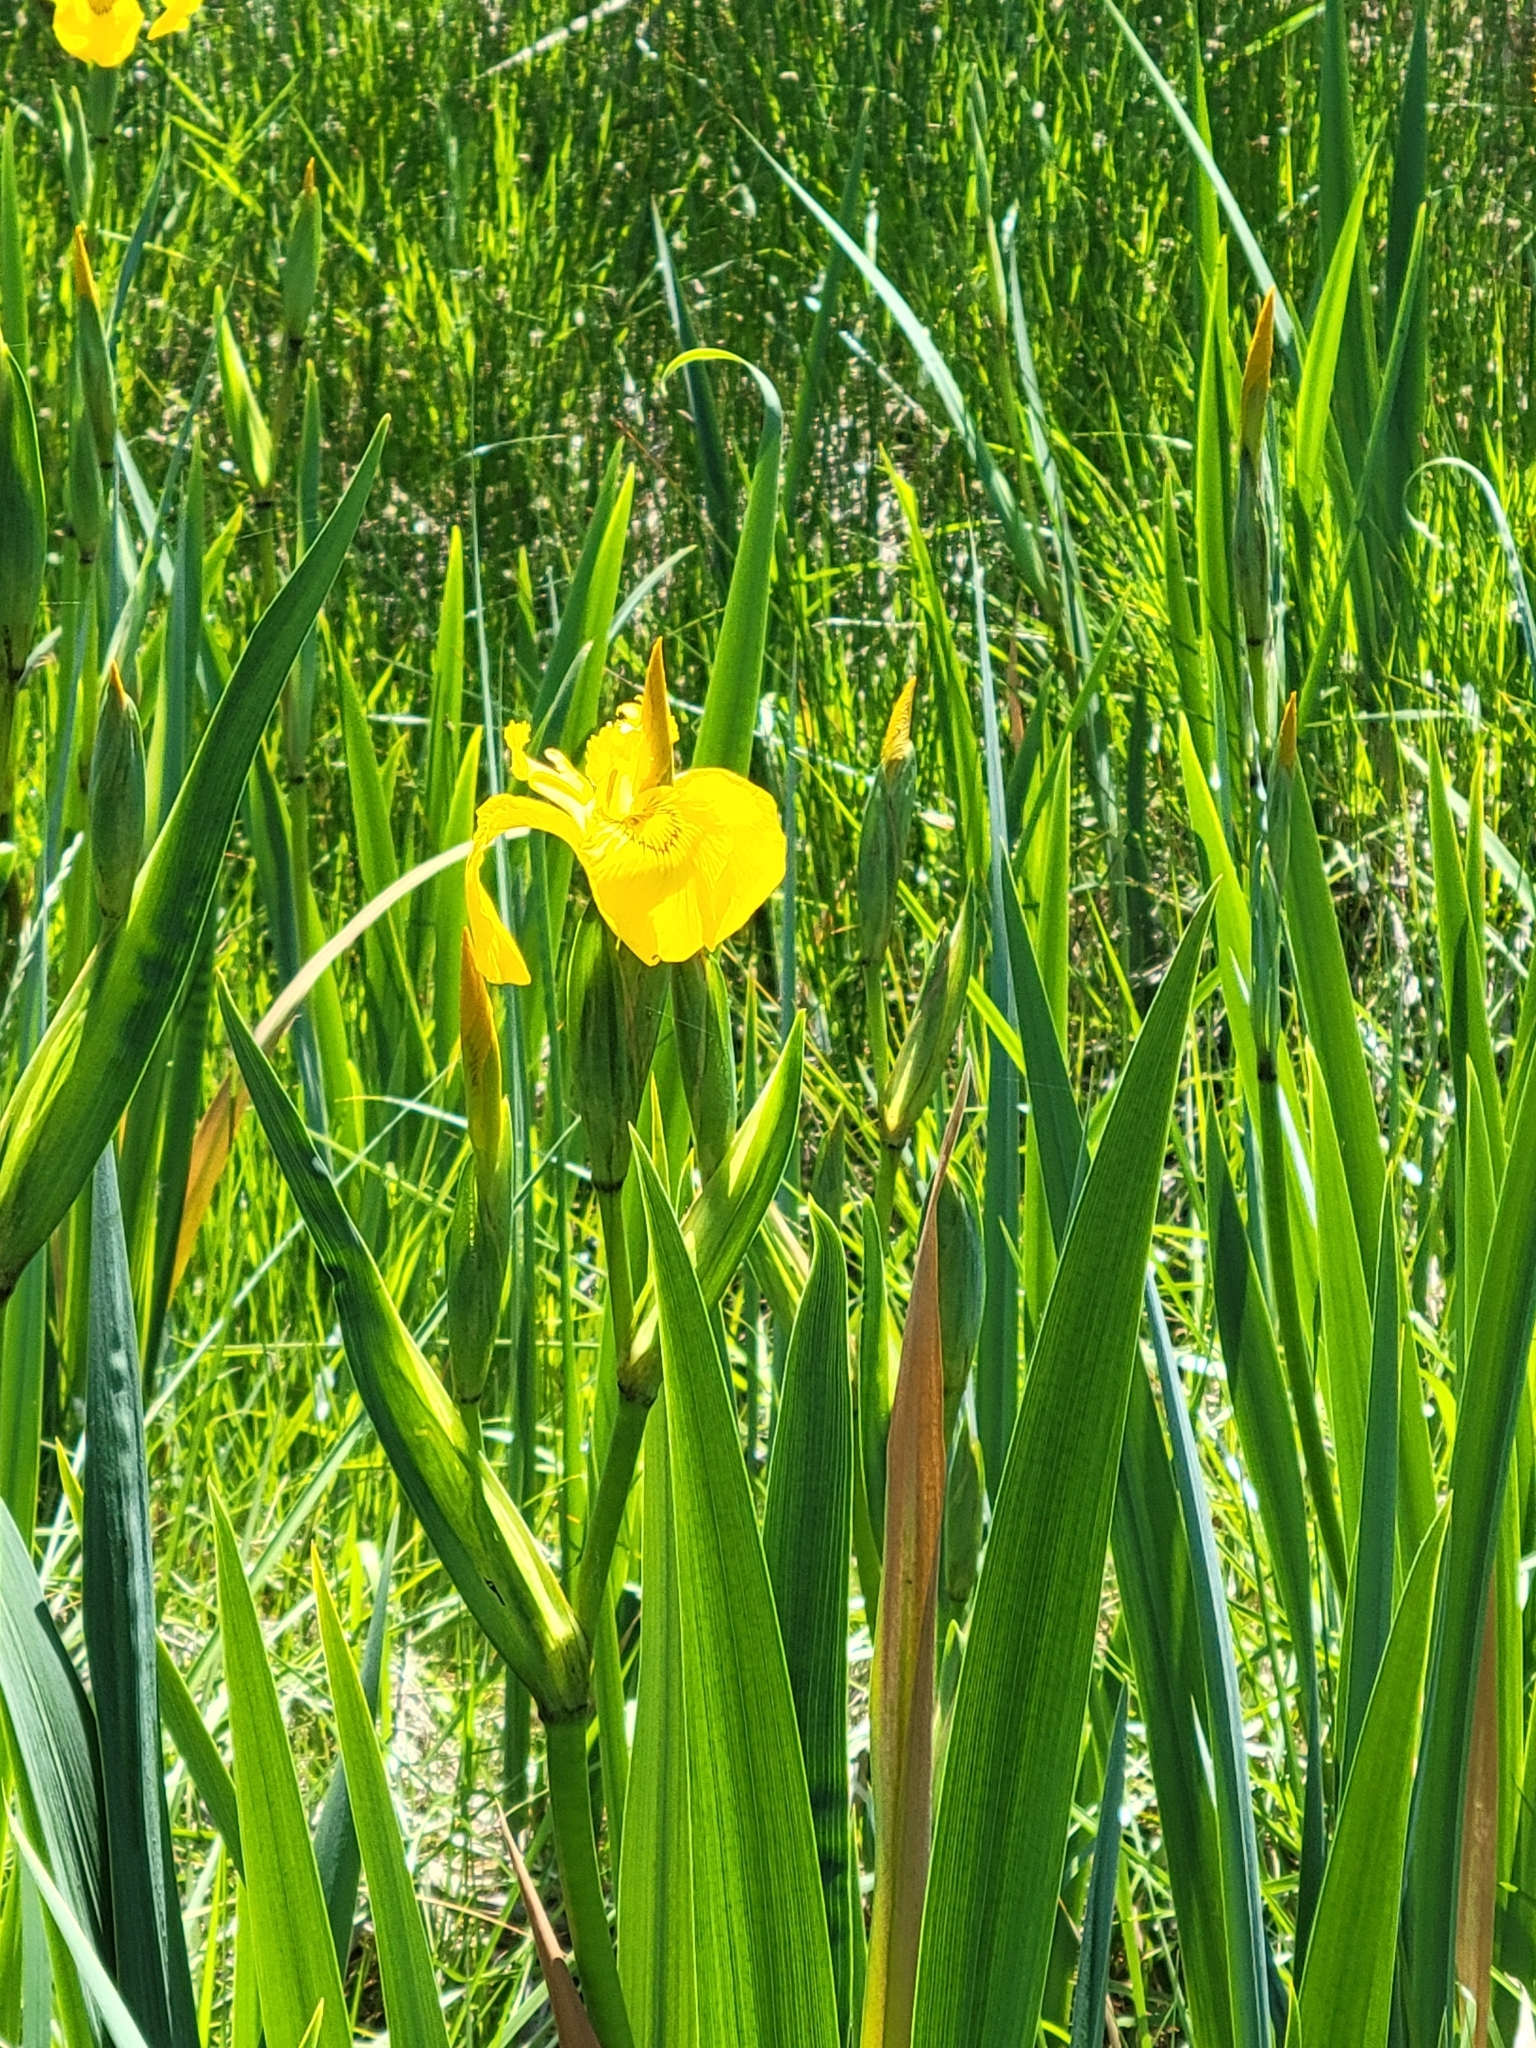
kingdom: Plantae
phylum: Tracheophyta
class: Liliopsida
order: Asparagales
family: Iridaceae
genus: Iris
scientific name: Iris pseudacorus
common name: Yellow flag
